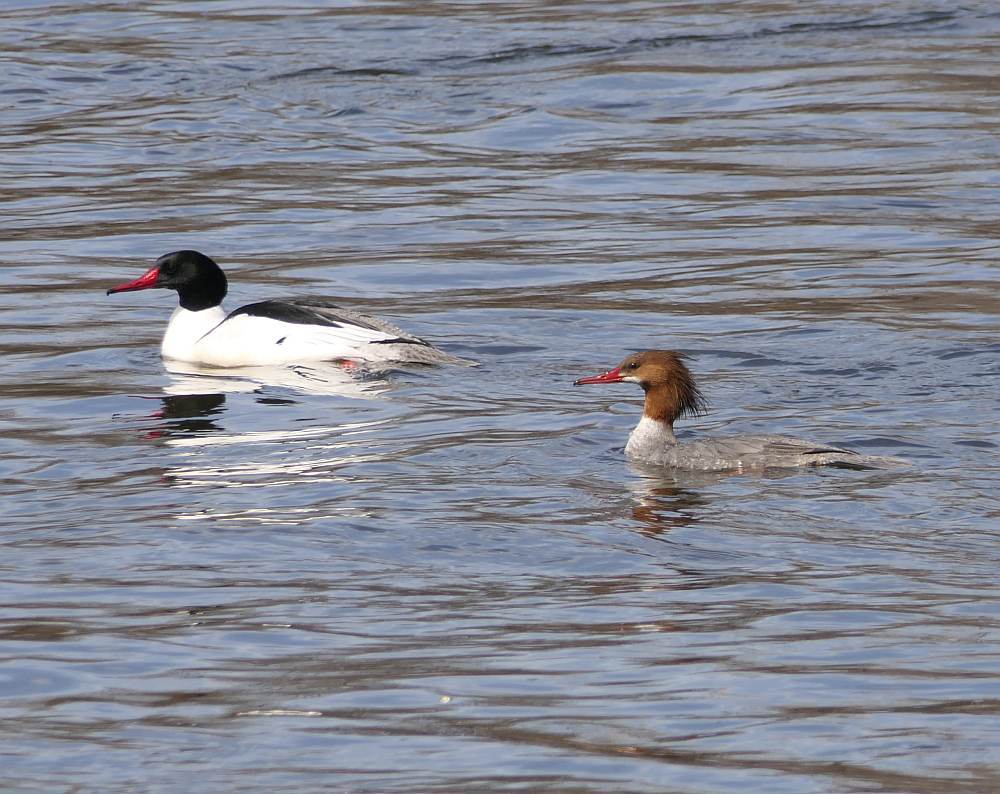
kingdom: Animalia
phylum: Chordata
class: Aves
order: Anseriformes
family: Anatidae
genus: Mergus
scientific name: Mergus merganser
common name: Common merganser
